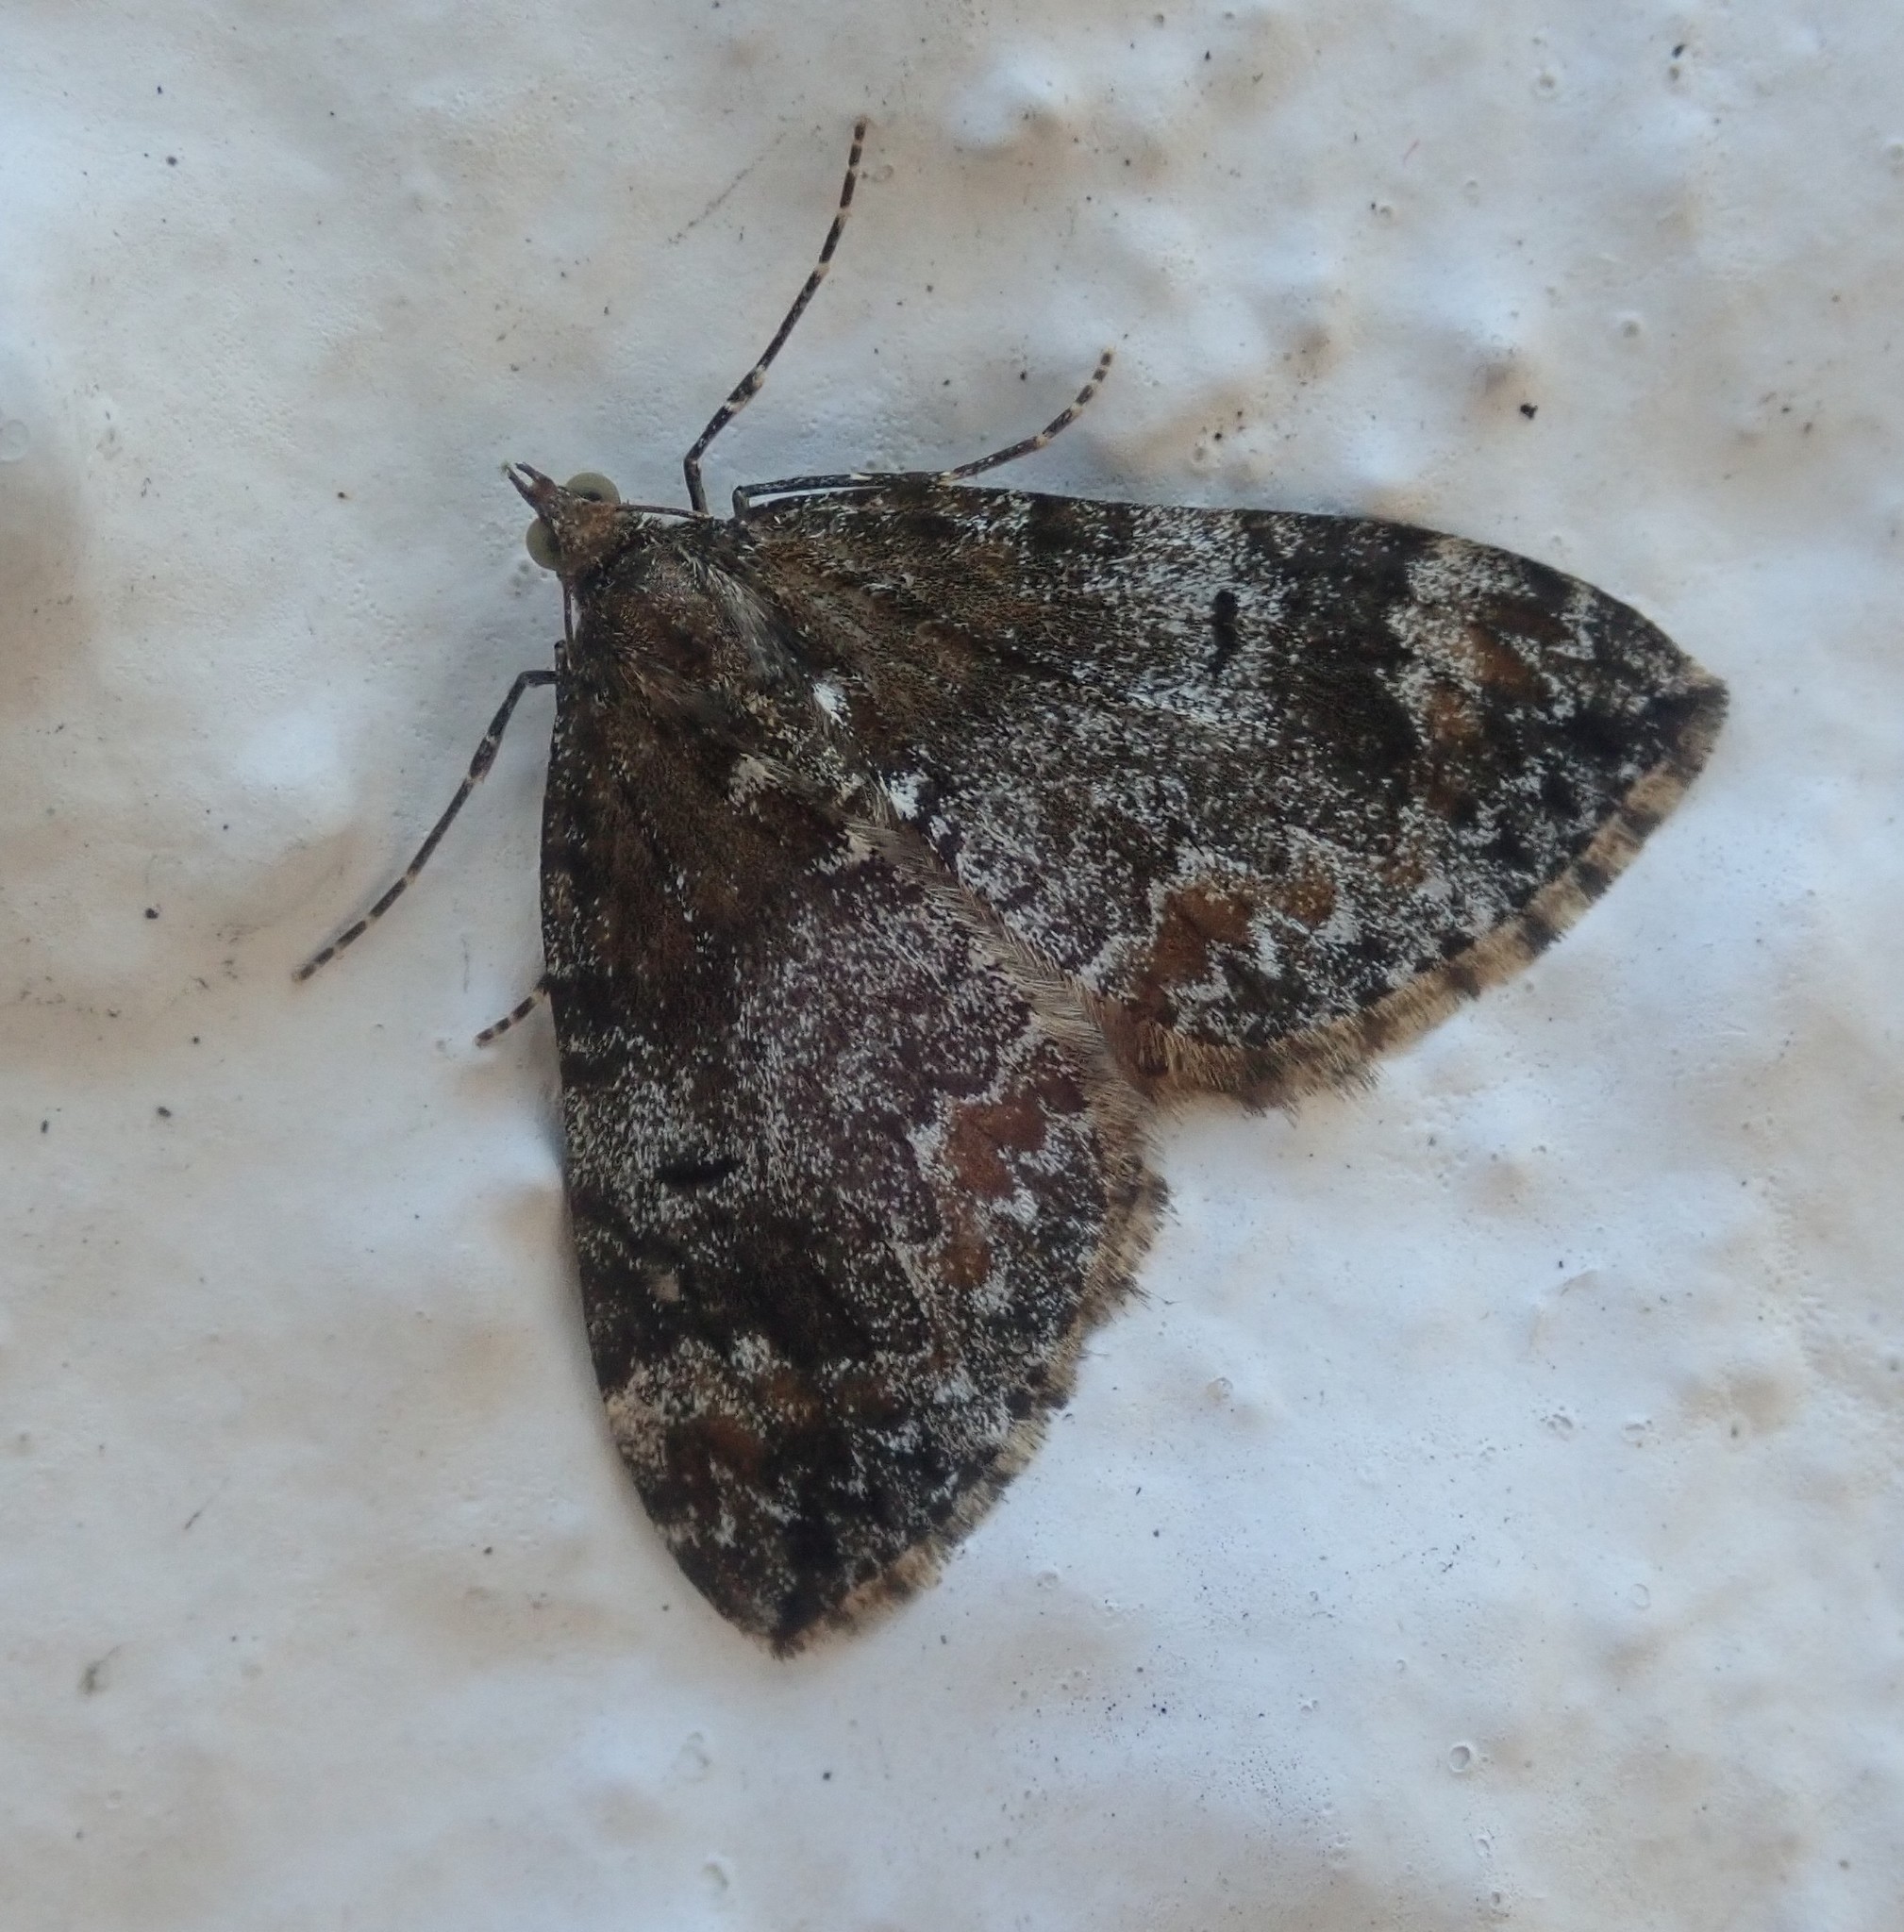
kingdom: Animalia
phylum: Arthropoda
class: Insecta
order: Lepidoptera
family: Geometridae
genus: Dysstroma
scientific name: Dysstroma truncata
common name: Common marbled carpet
